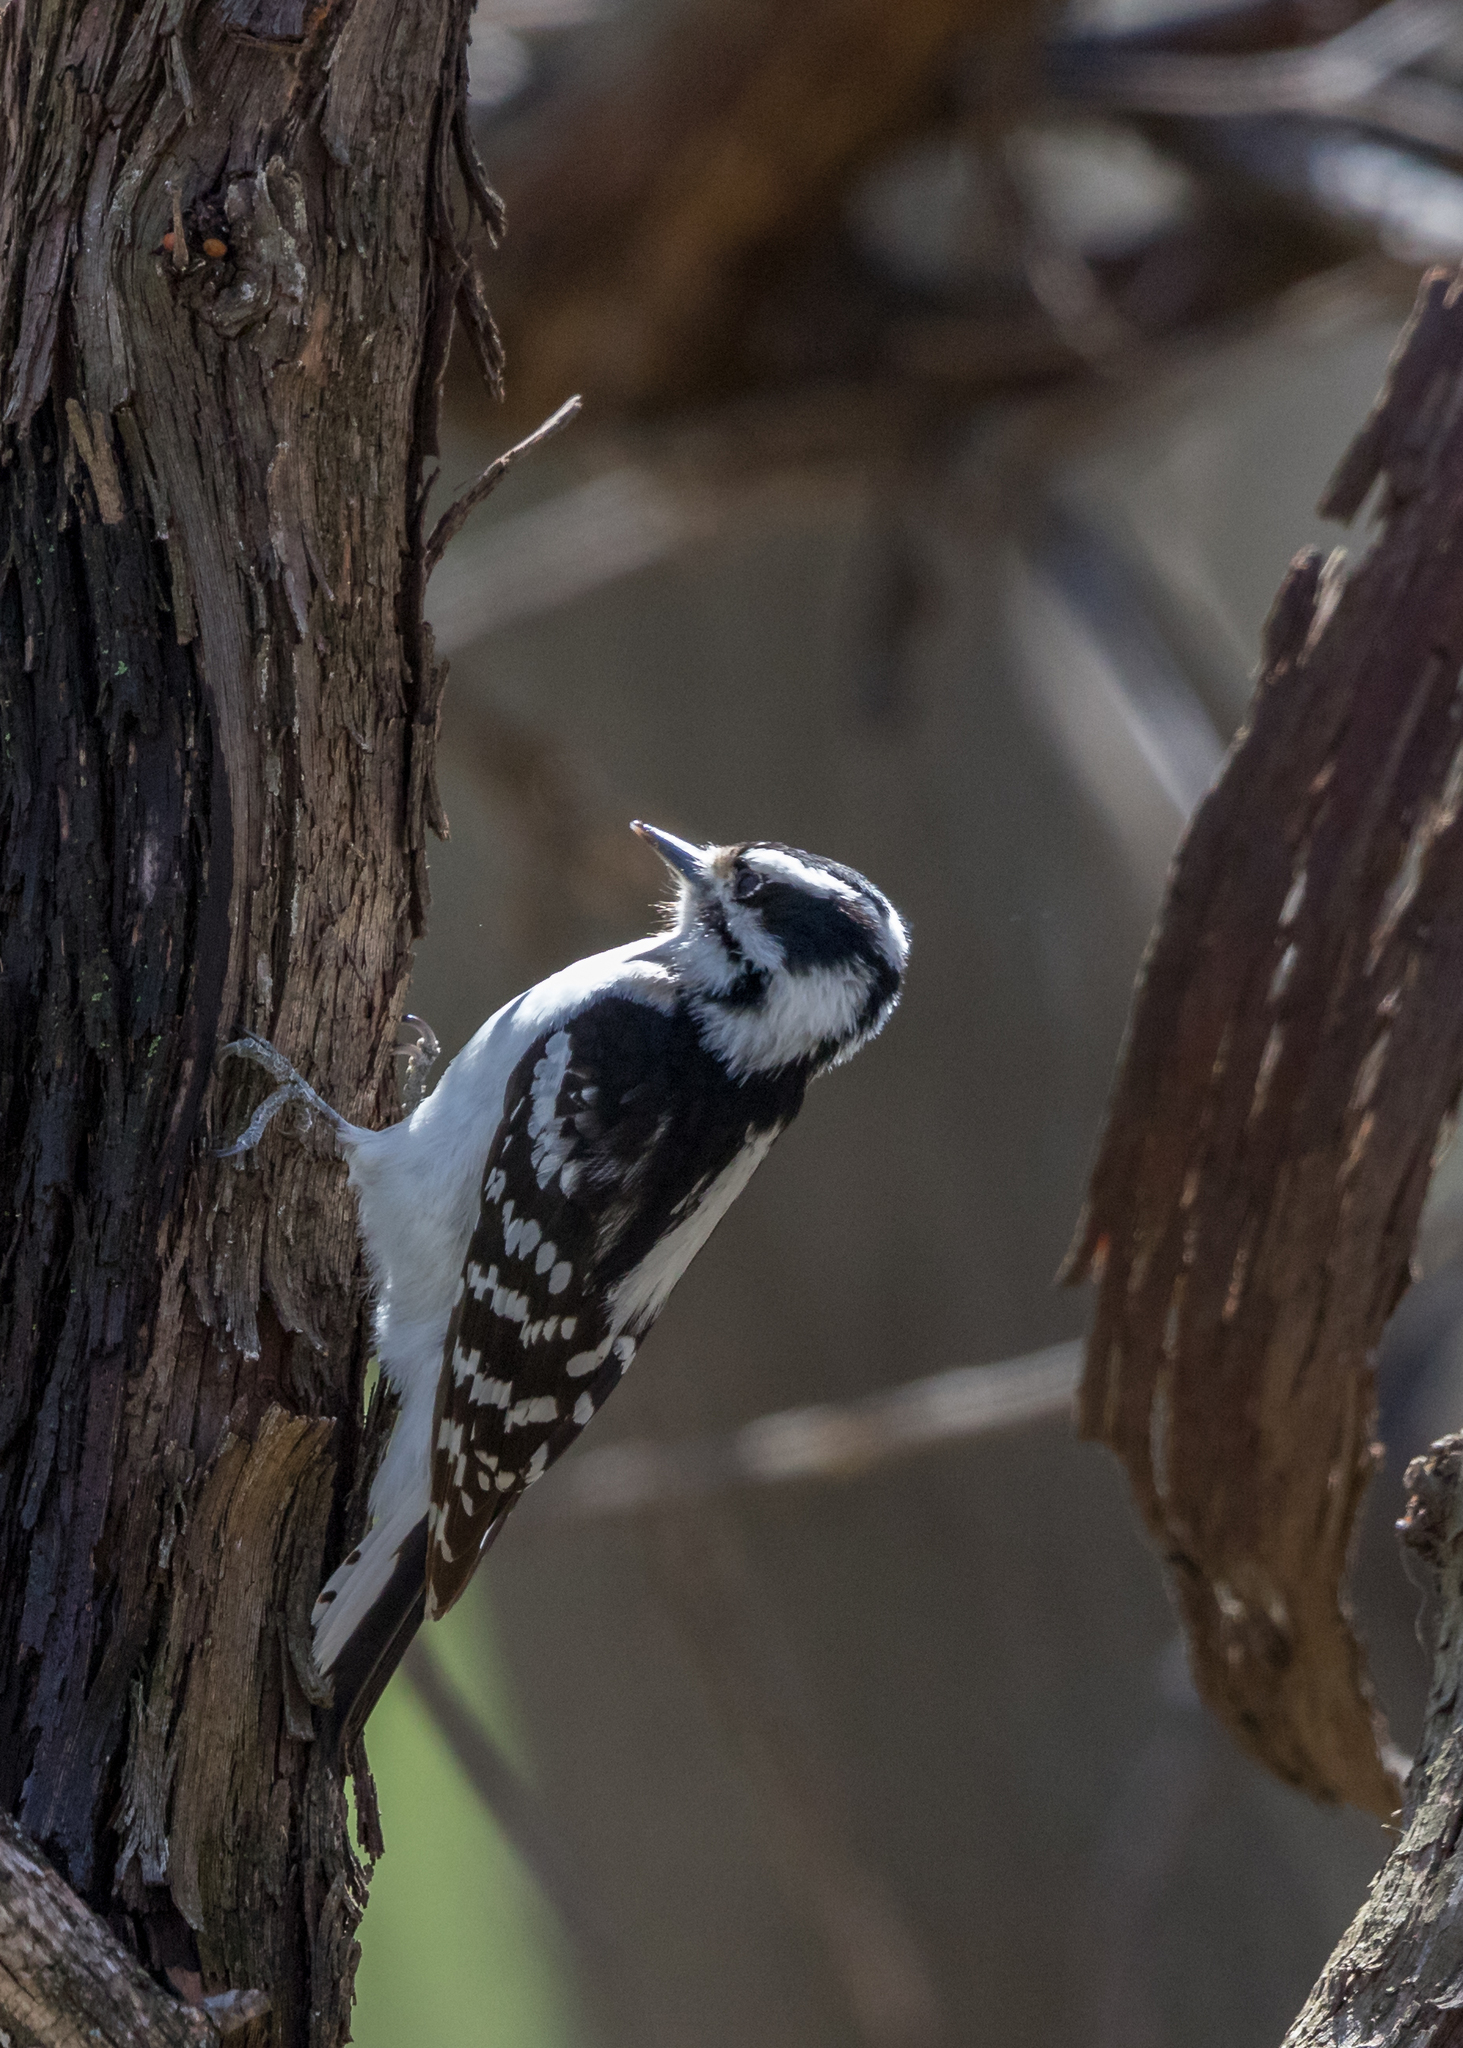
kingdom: Animalia
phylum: Chordata
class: Aves
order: Piciformes
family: Picidae
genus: Dryobates
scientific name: Dryobates pubescens
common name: Downy woodpecker
